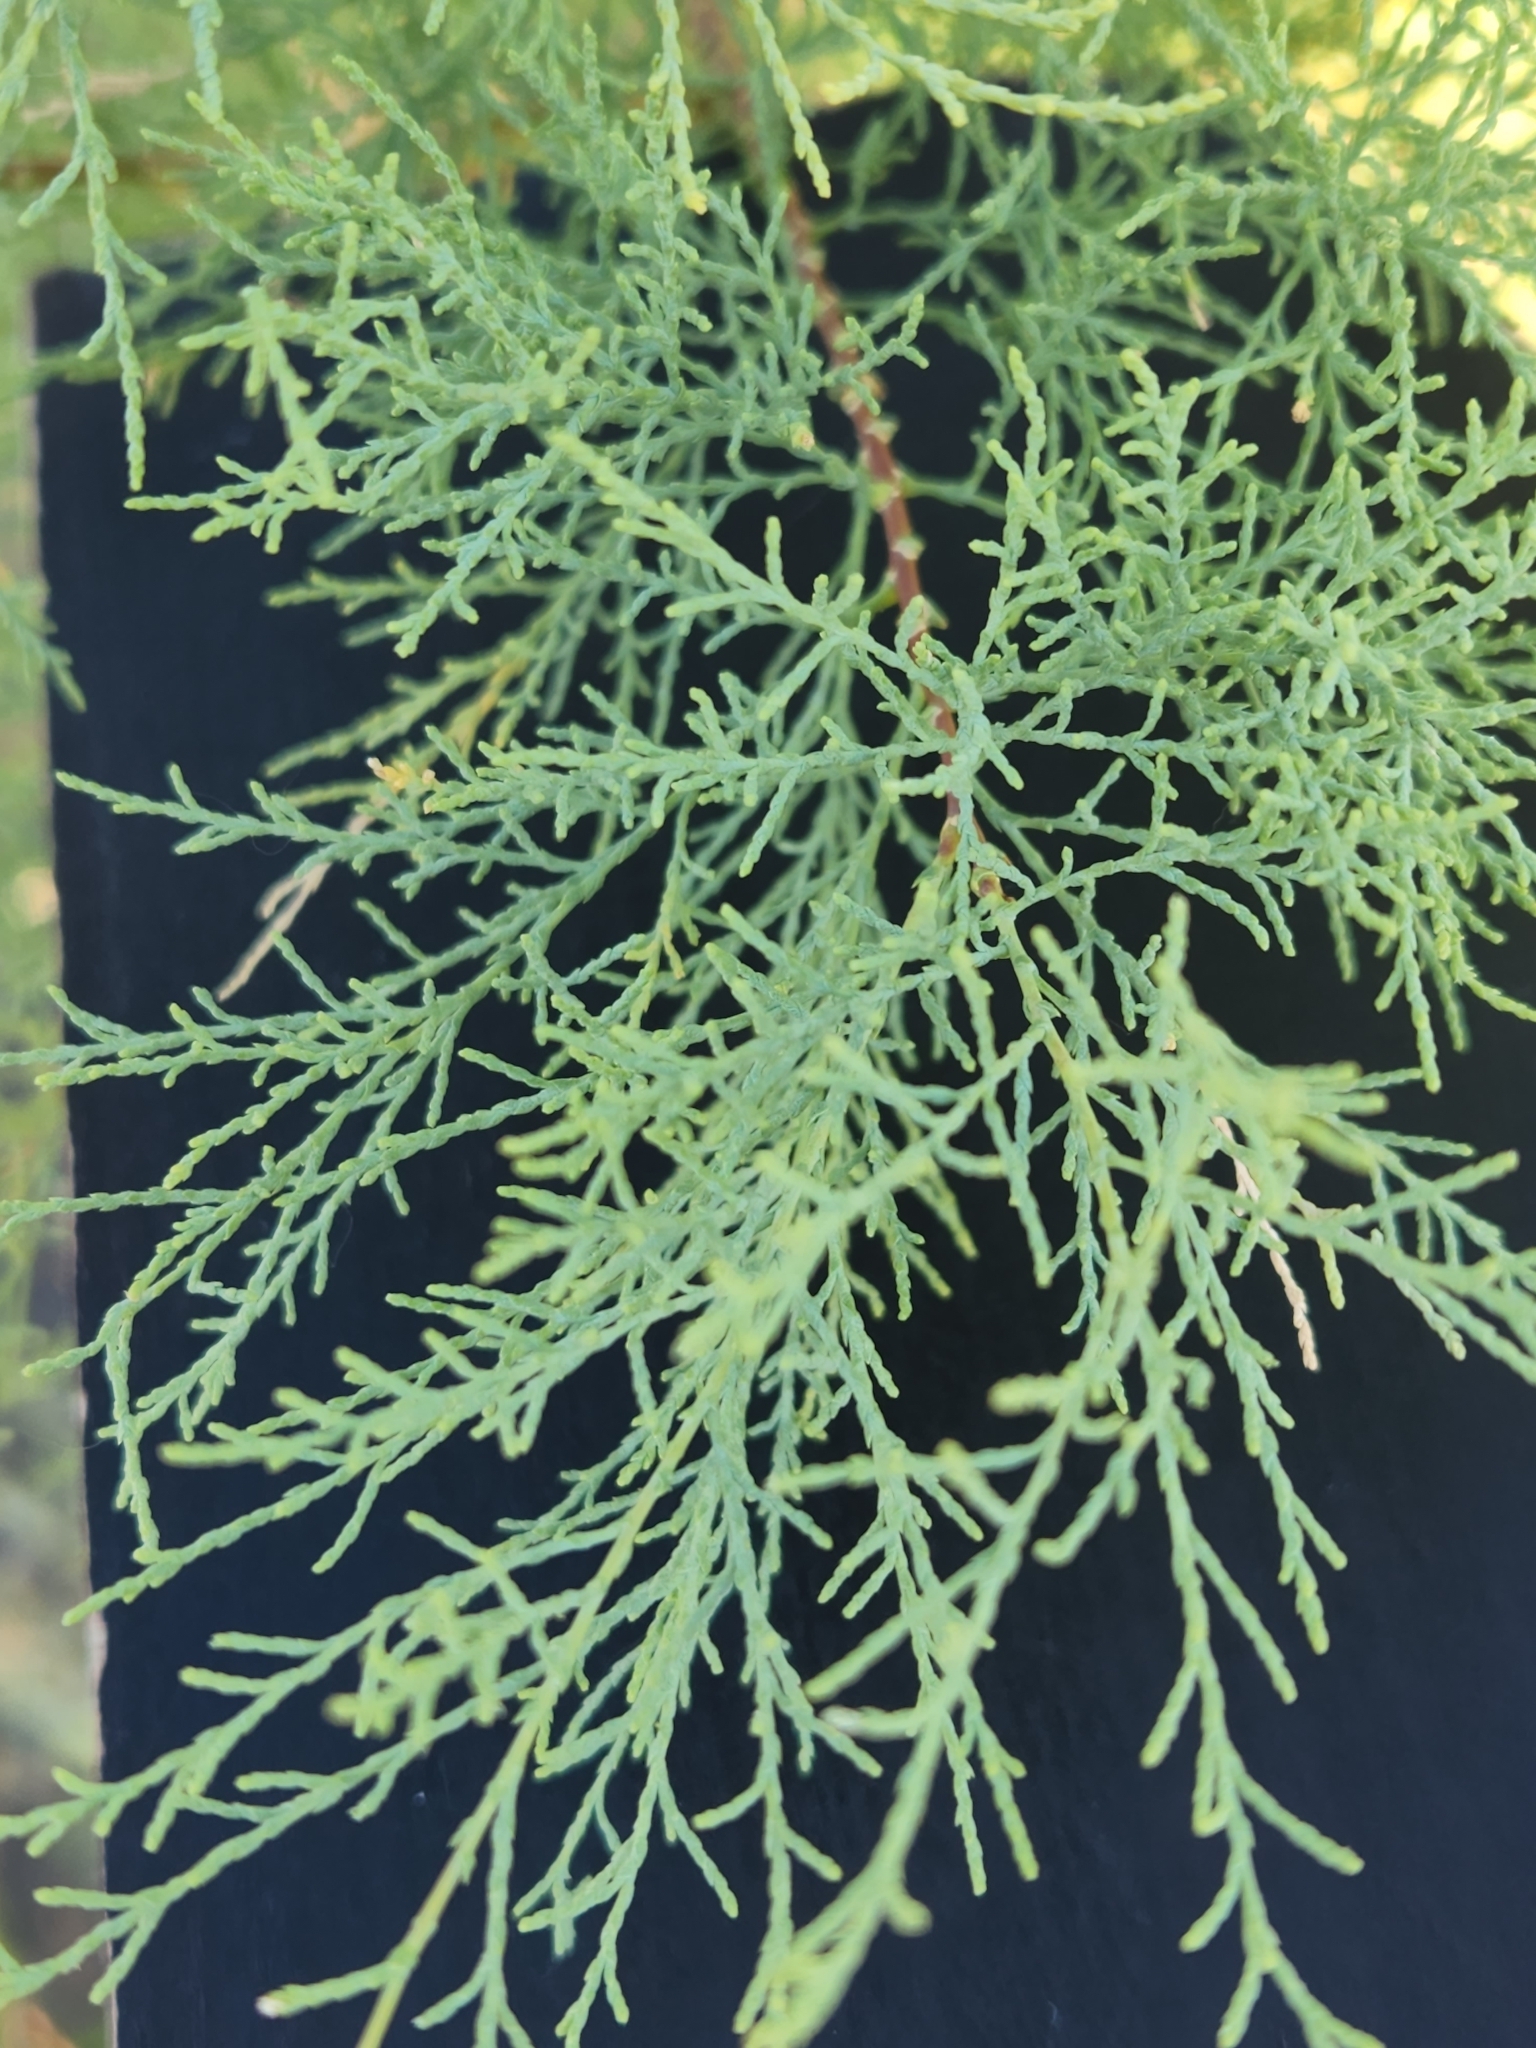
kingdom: Plantae
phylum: Tracheophyta
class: Magnoliopsida
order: Caryophyllales
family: Tamaricaceae
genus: Tamarix
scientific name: Tamarix
